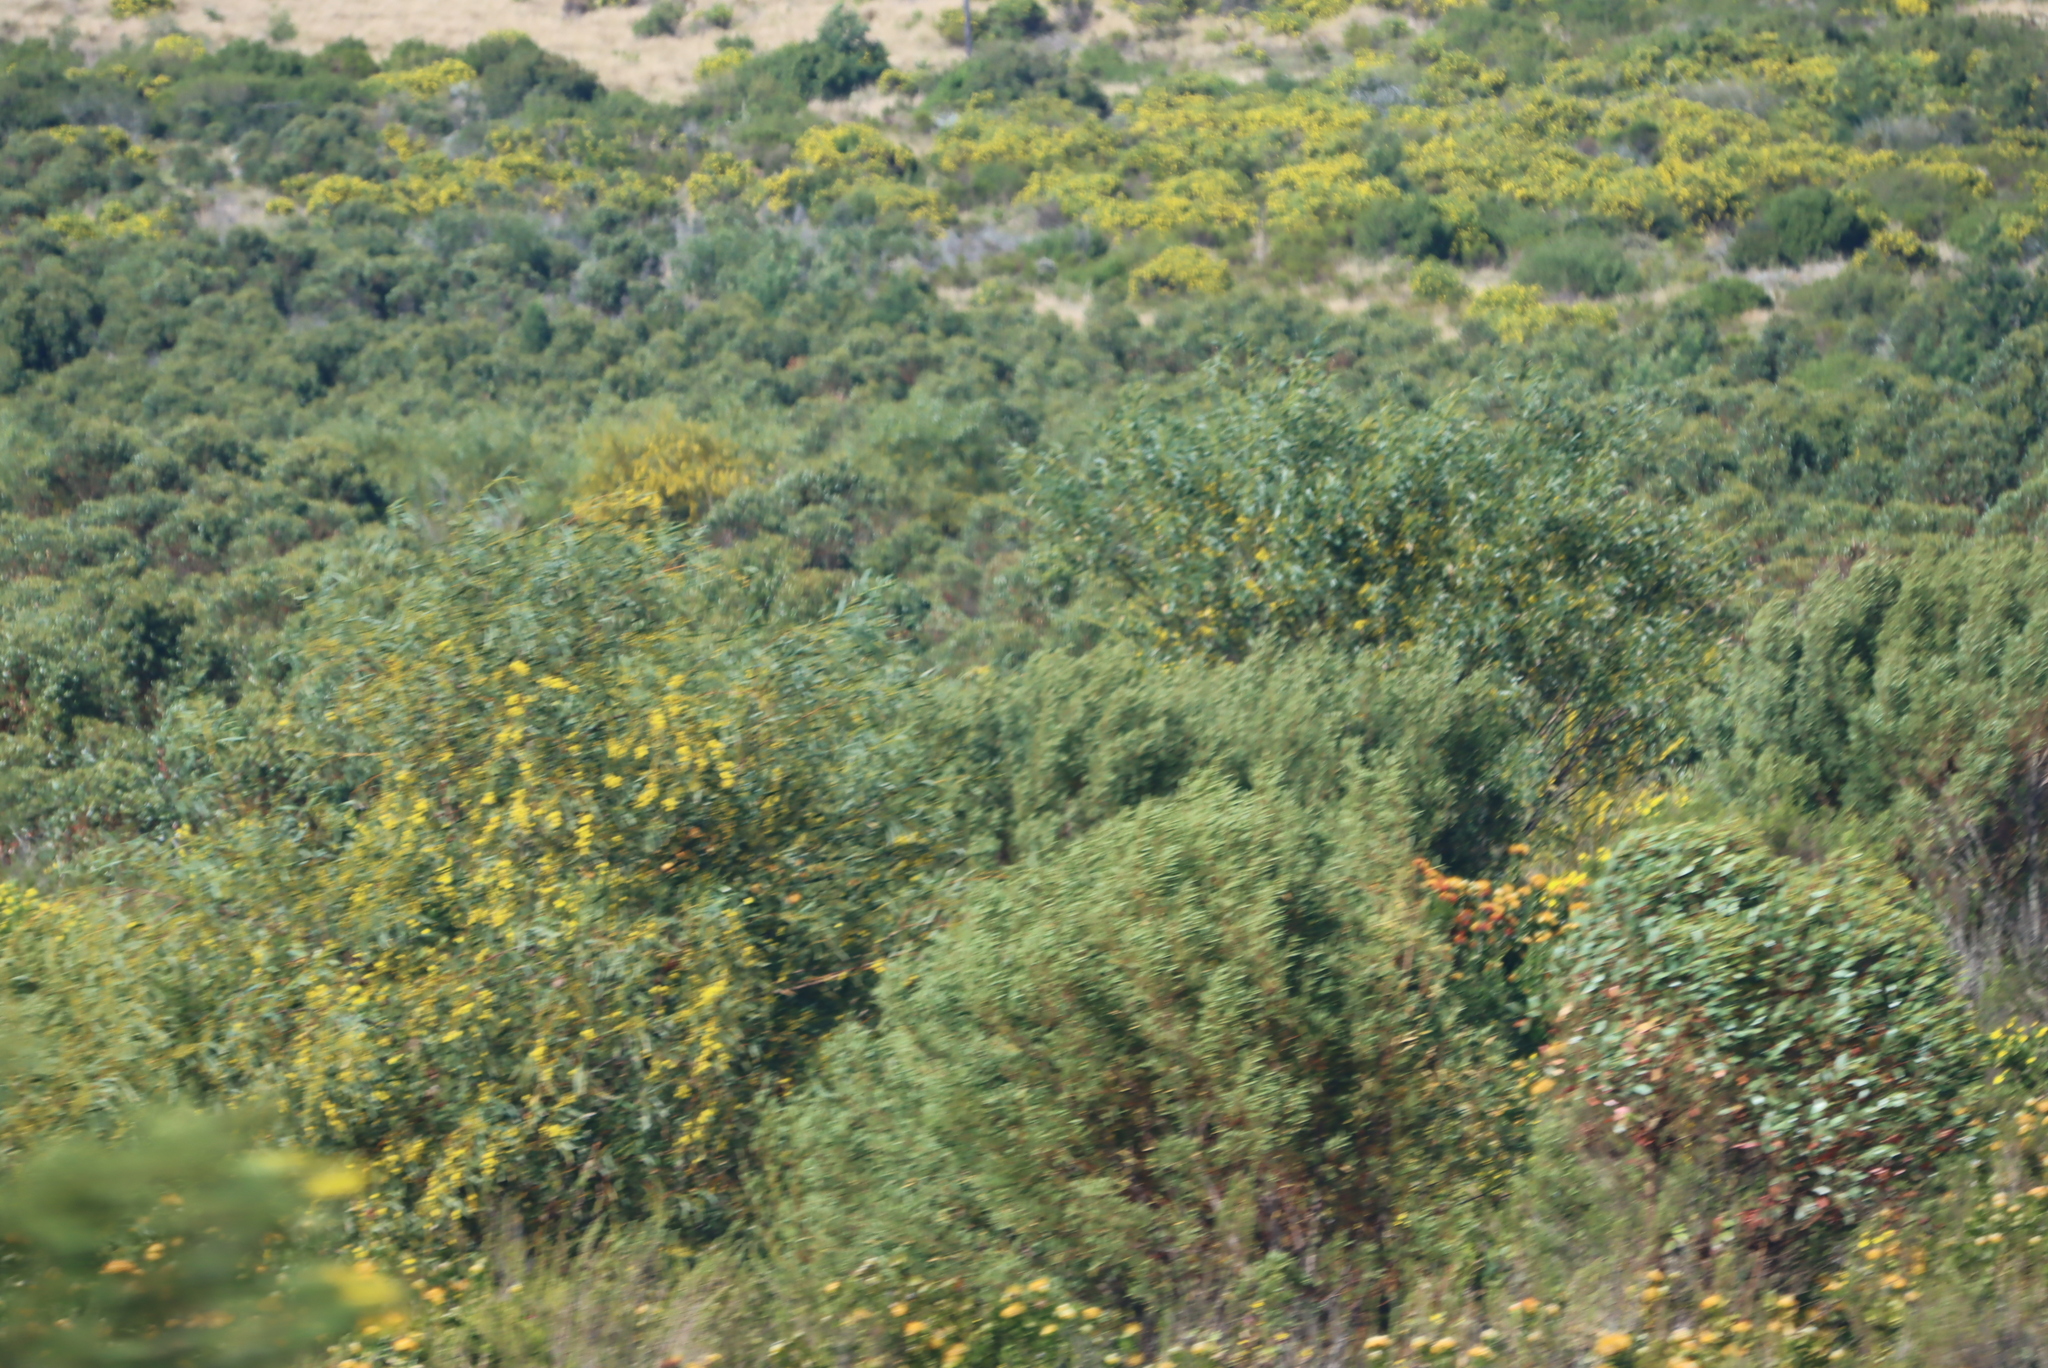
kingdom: Plantae
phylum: Tracheophyta
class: Magnoliopsida
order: Fabales
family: Fabaceae
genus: Acacia
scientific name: Acacia saligna
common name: Orange wattle
